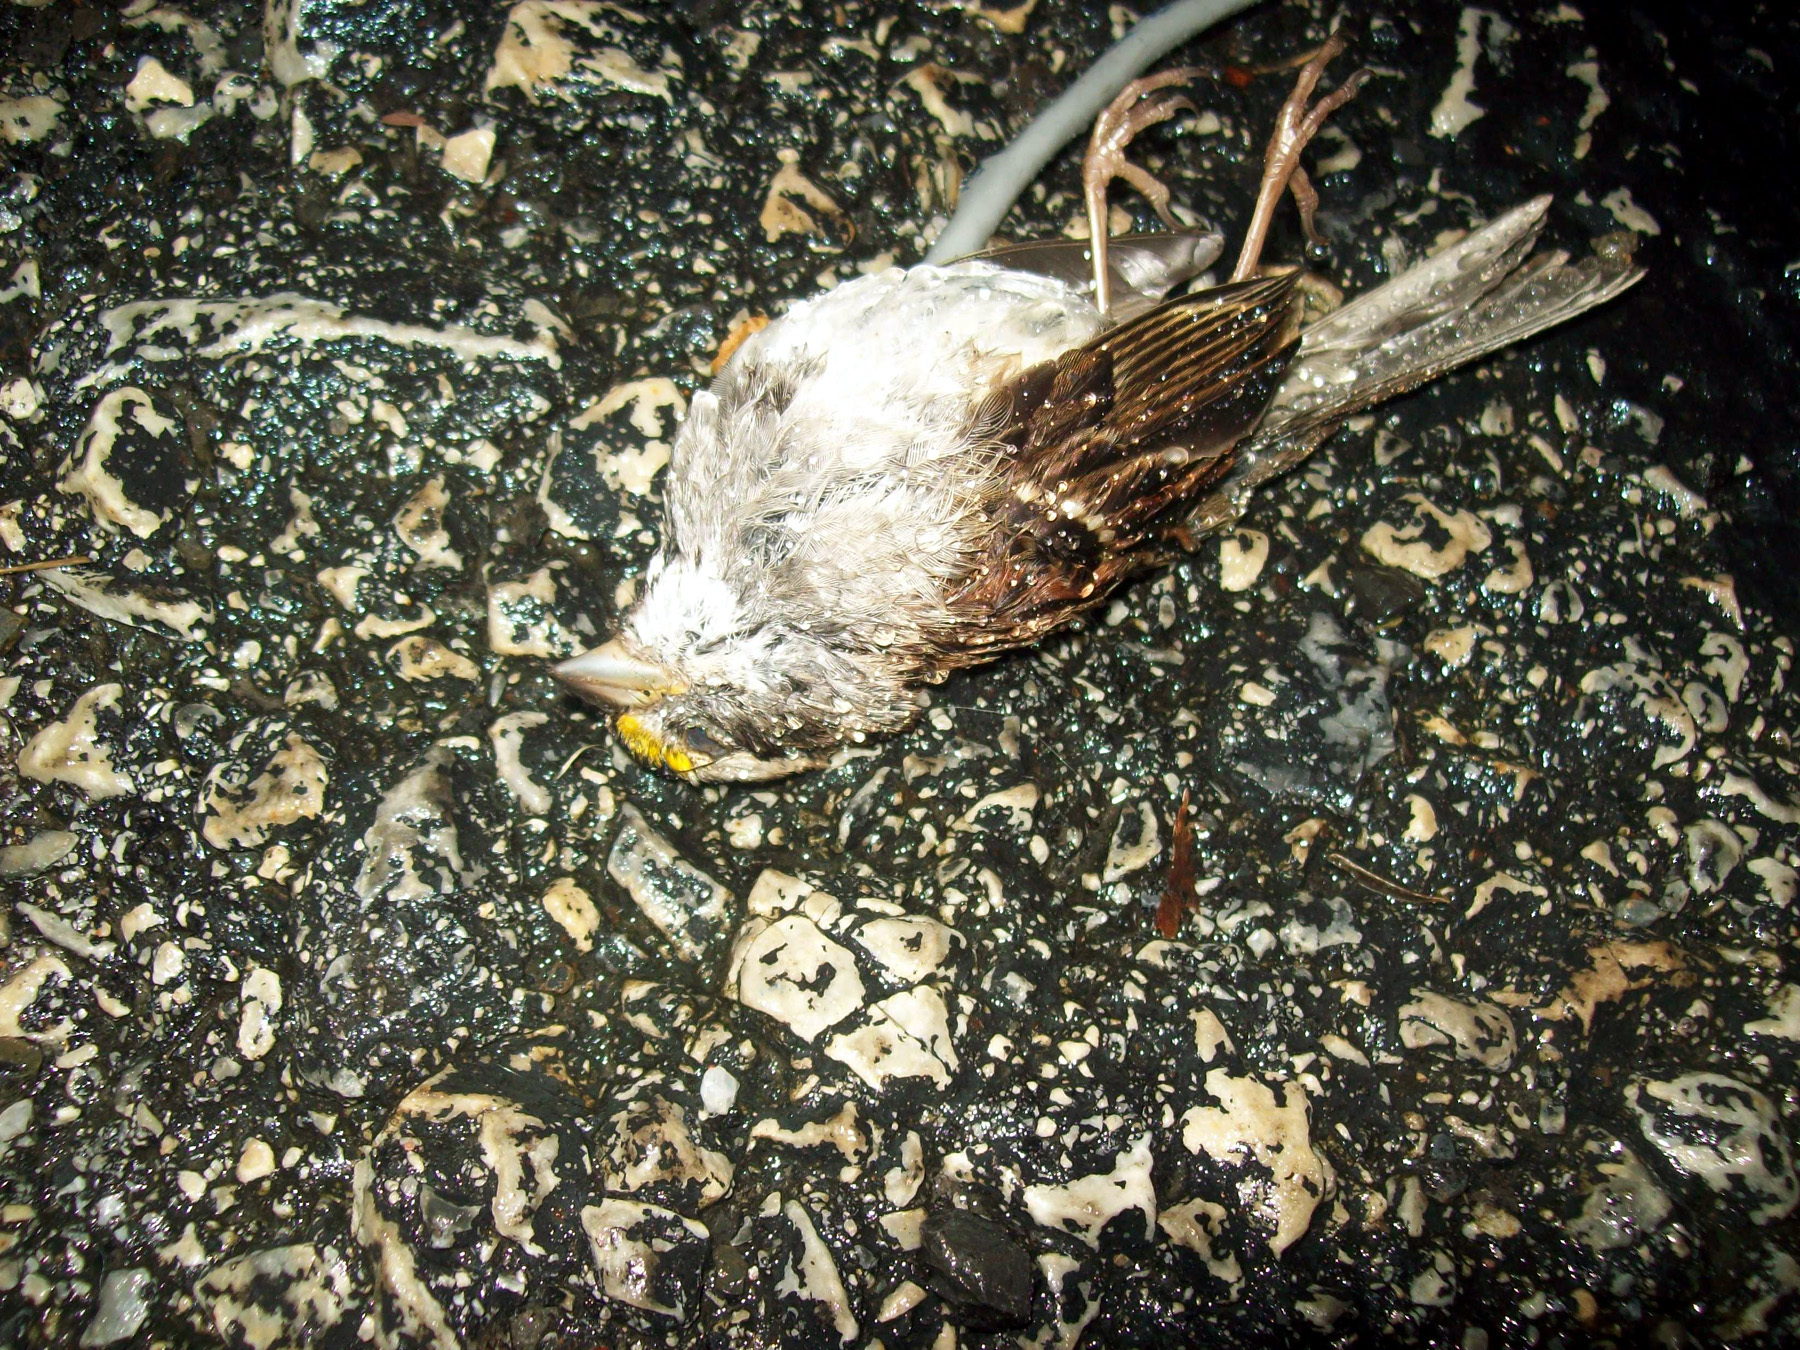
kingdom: Animalia
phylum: Chordata
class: Aves
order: Passeriformes
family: Passerellidae
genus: Zonotrichia
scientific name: Zonotrichia albicollis
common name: White-throated sparrow
